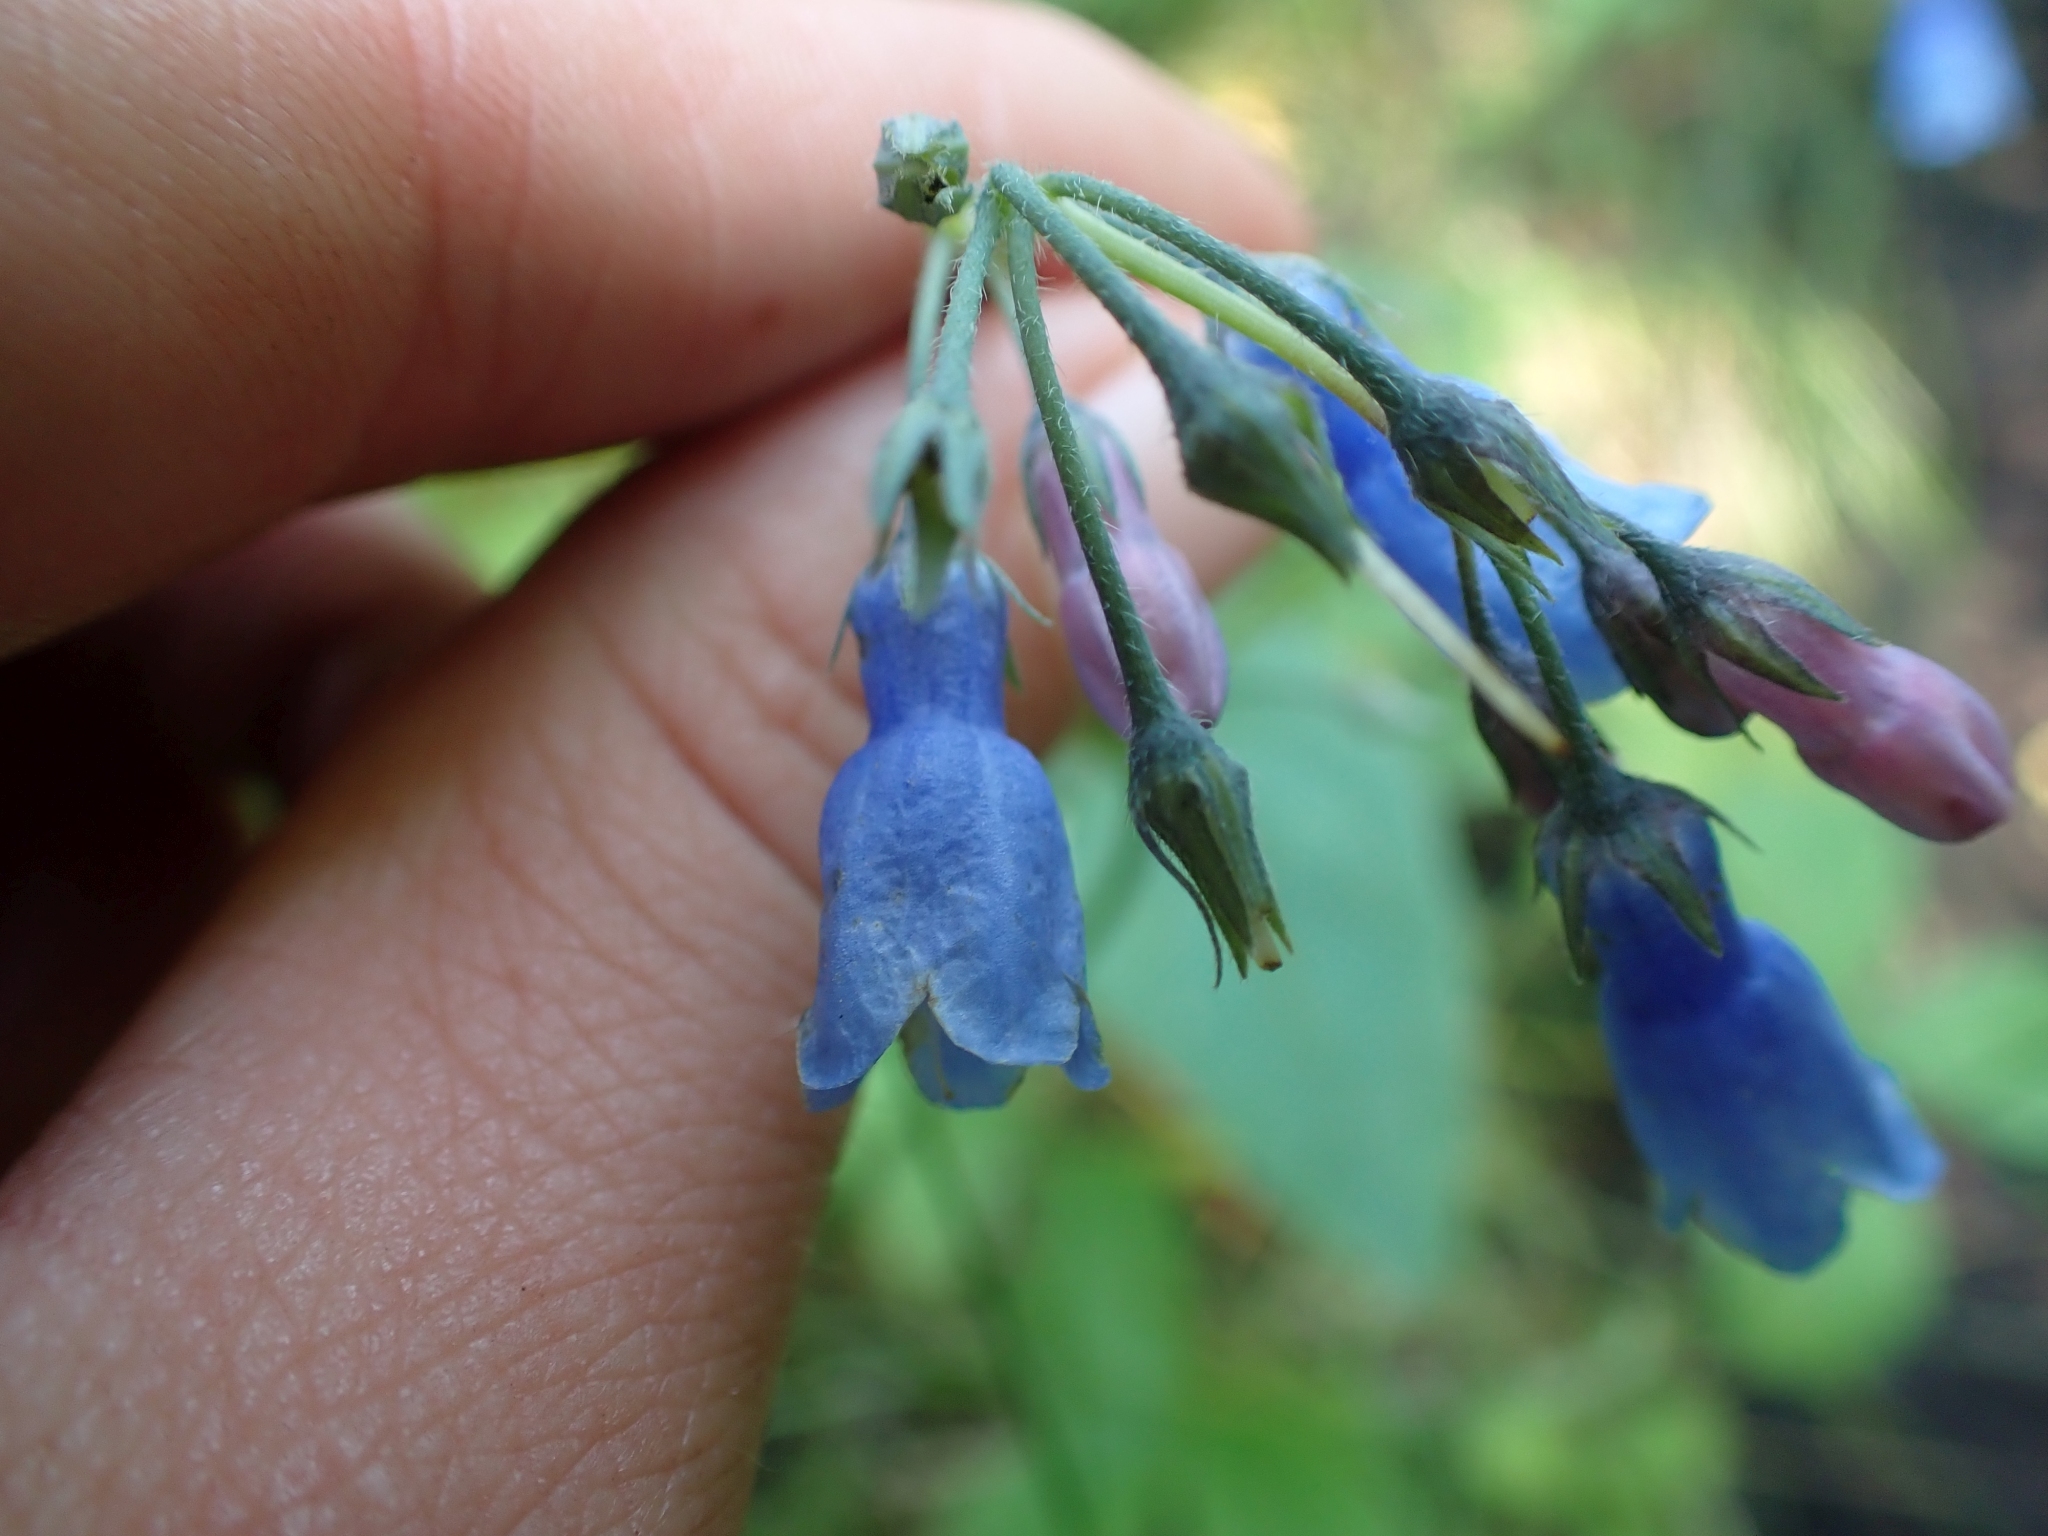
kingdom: Plantae
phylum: Tracheophyta
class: Magnoliopsida
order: Boraginales
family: Boraginaceae
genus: Mertensia
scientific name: Mertensia paniculata
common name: Panicled bluebells
